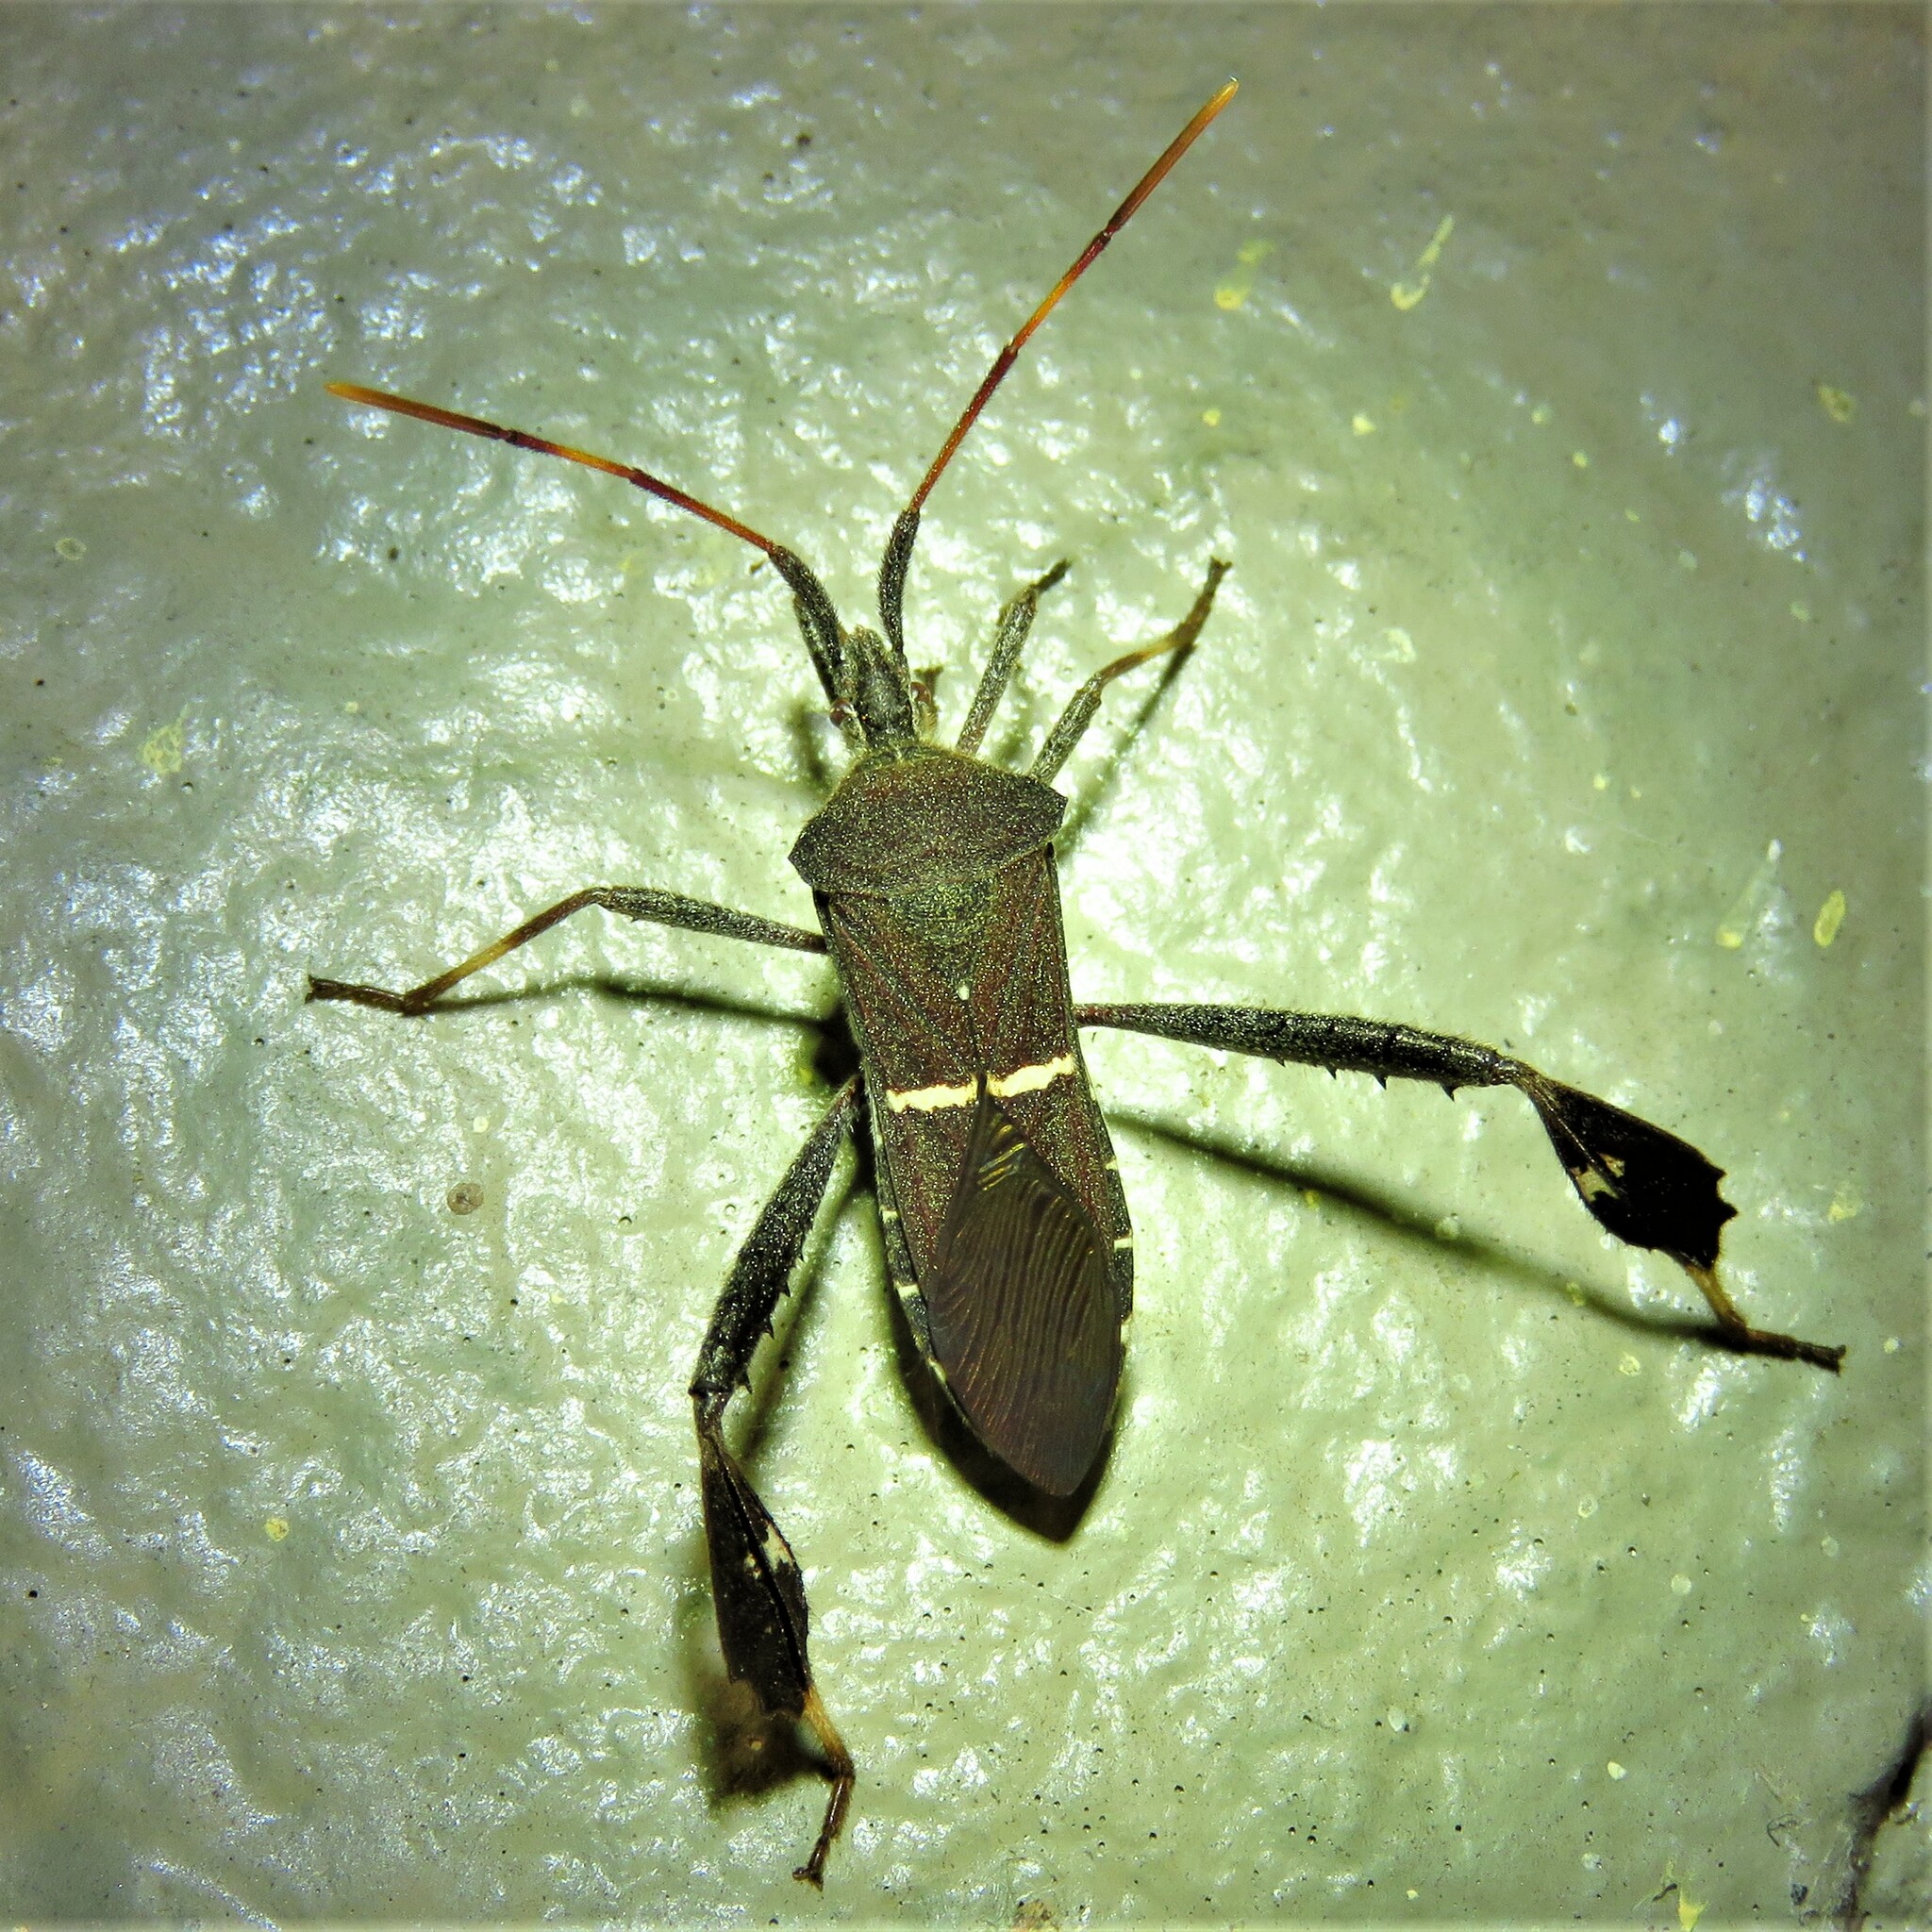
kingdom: Animalia
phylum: Arthropoda
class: Insecta
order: Hemiptera
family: Coreidae
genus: Leptoglossus
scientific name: Leptoglossus phyllopus
